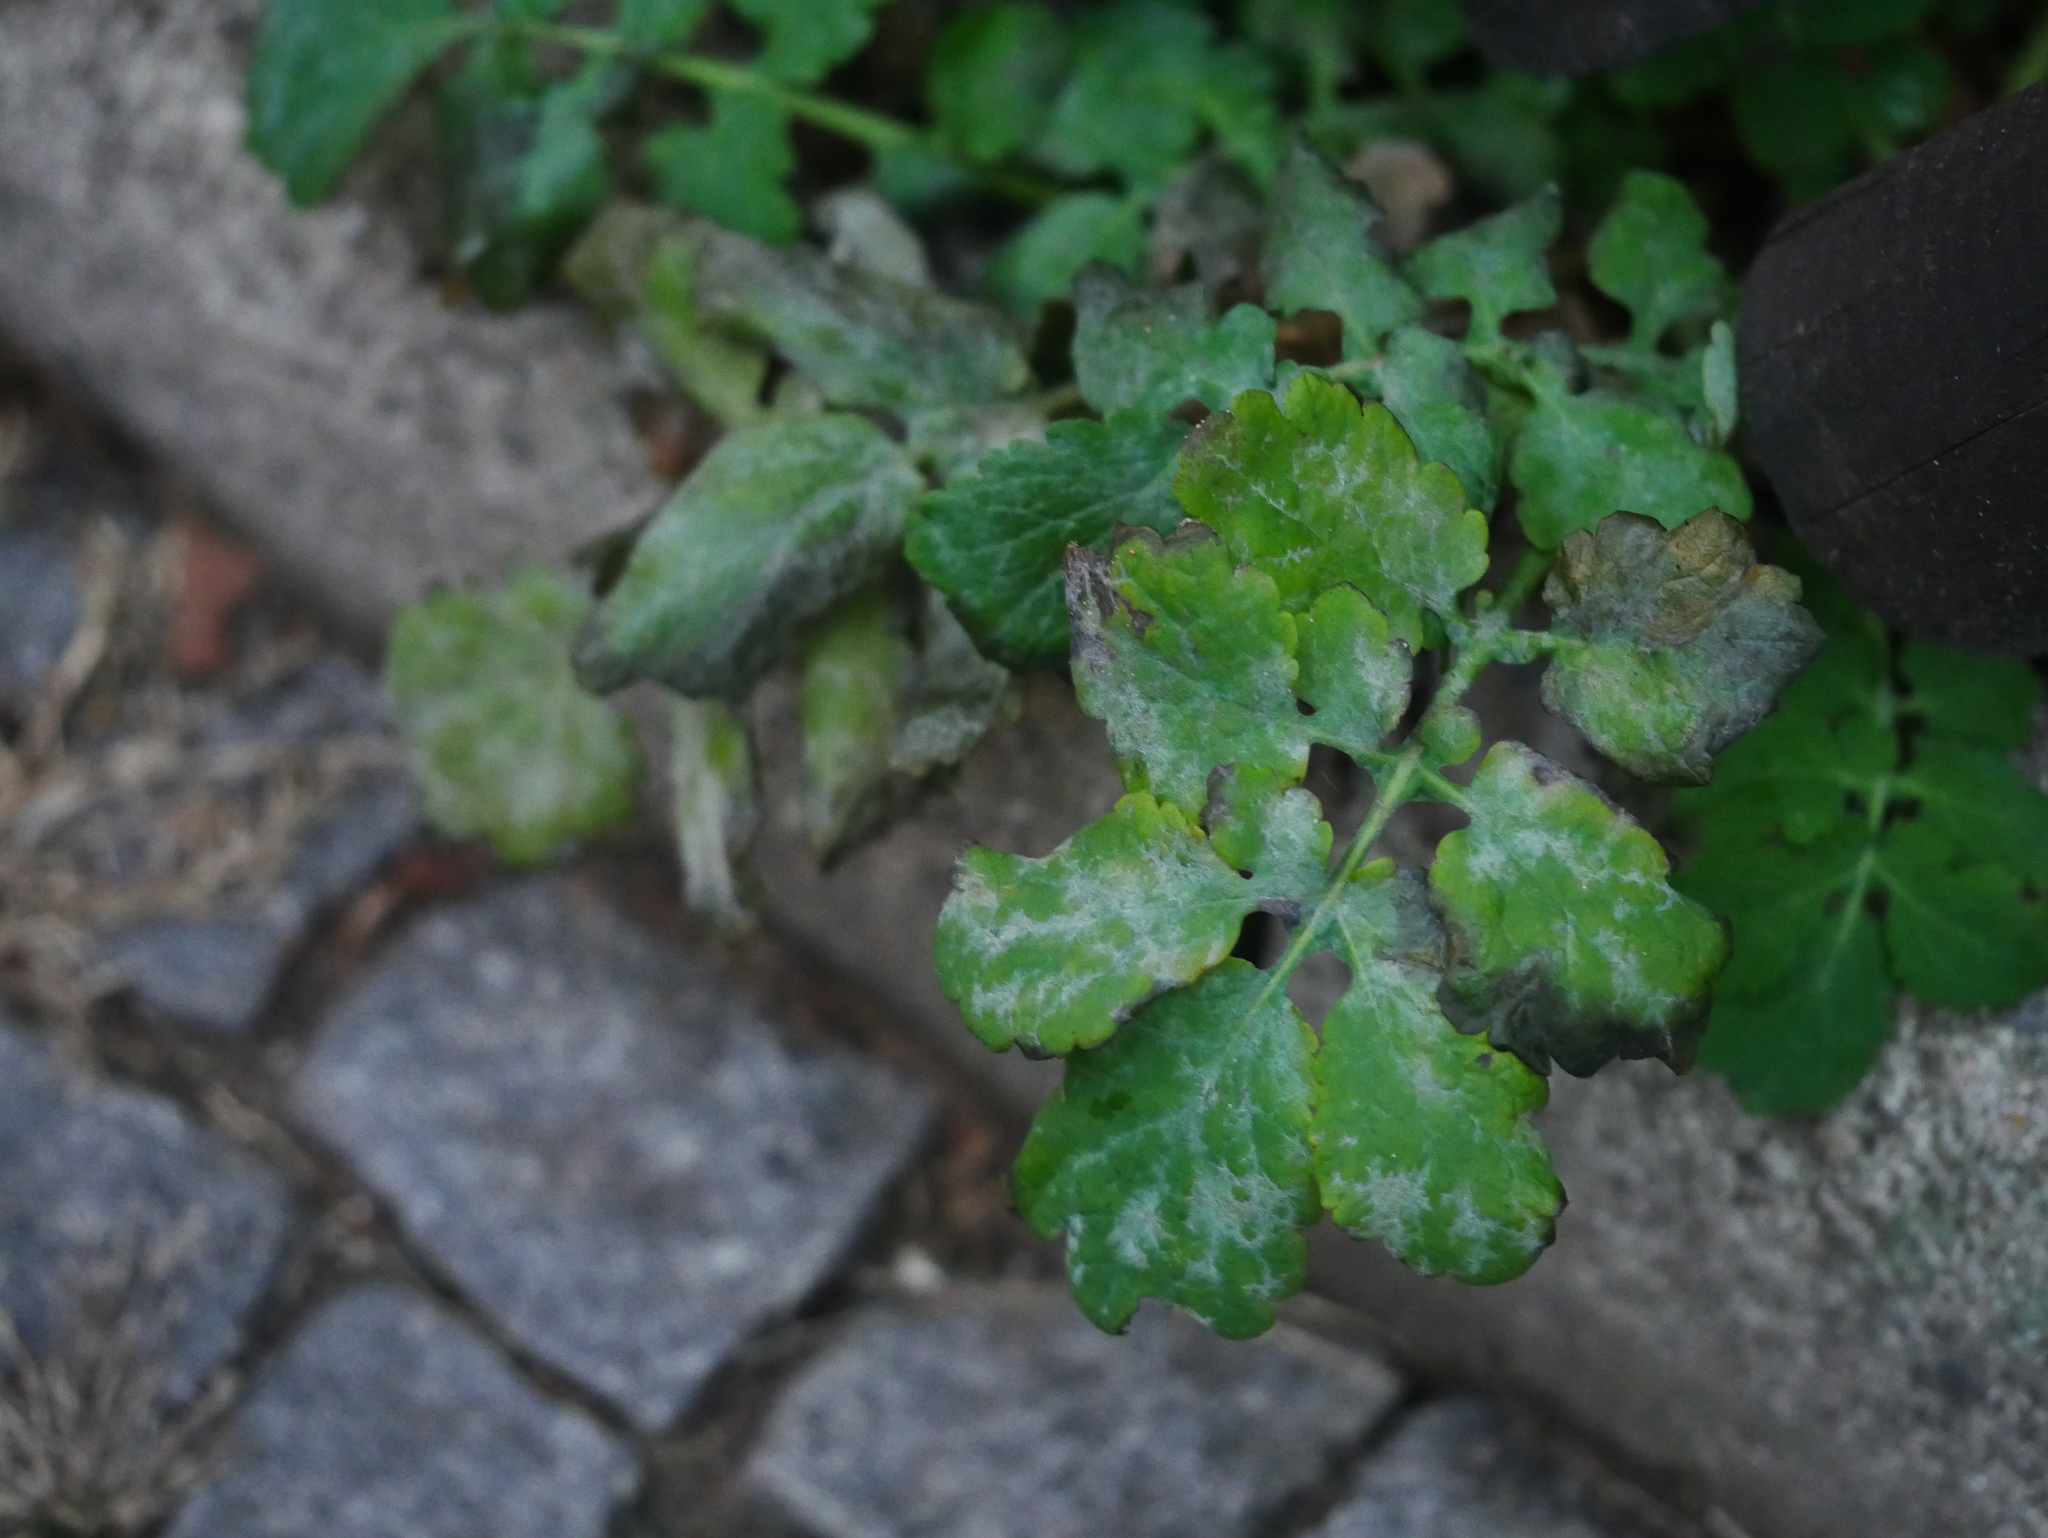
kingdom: Fungi
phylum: Ascomycota
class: Leotiomycetes
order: Helotiales
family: Erysiphaceae
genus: Erysiphe
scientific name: Erysiphe macleayae
